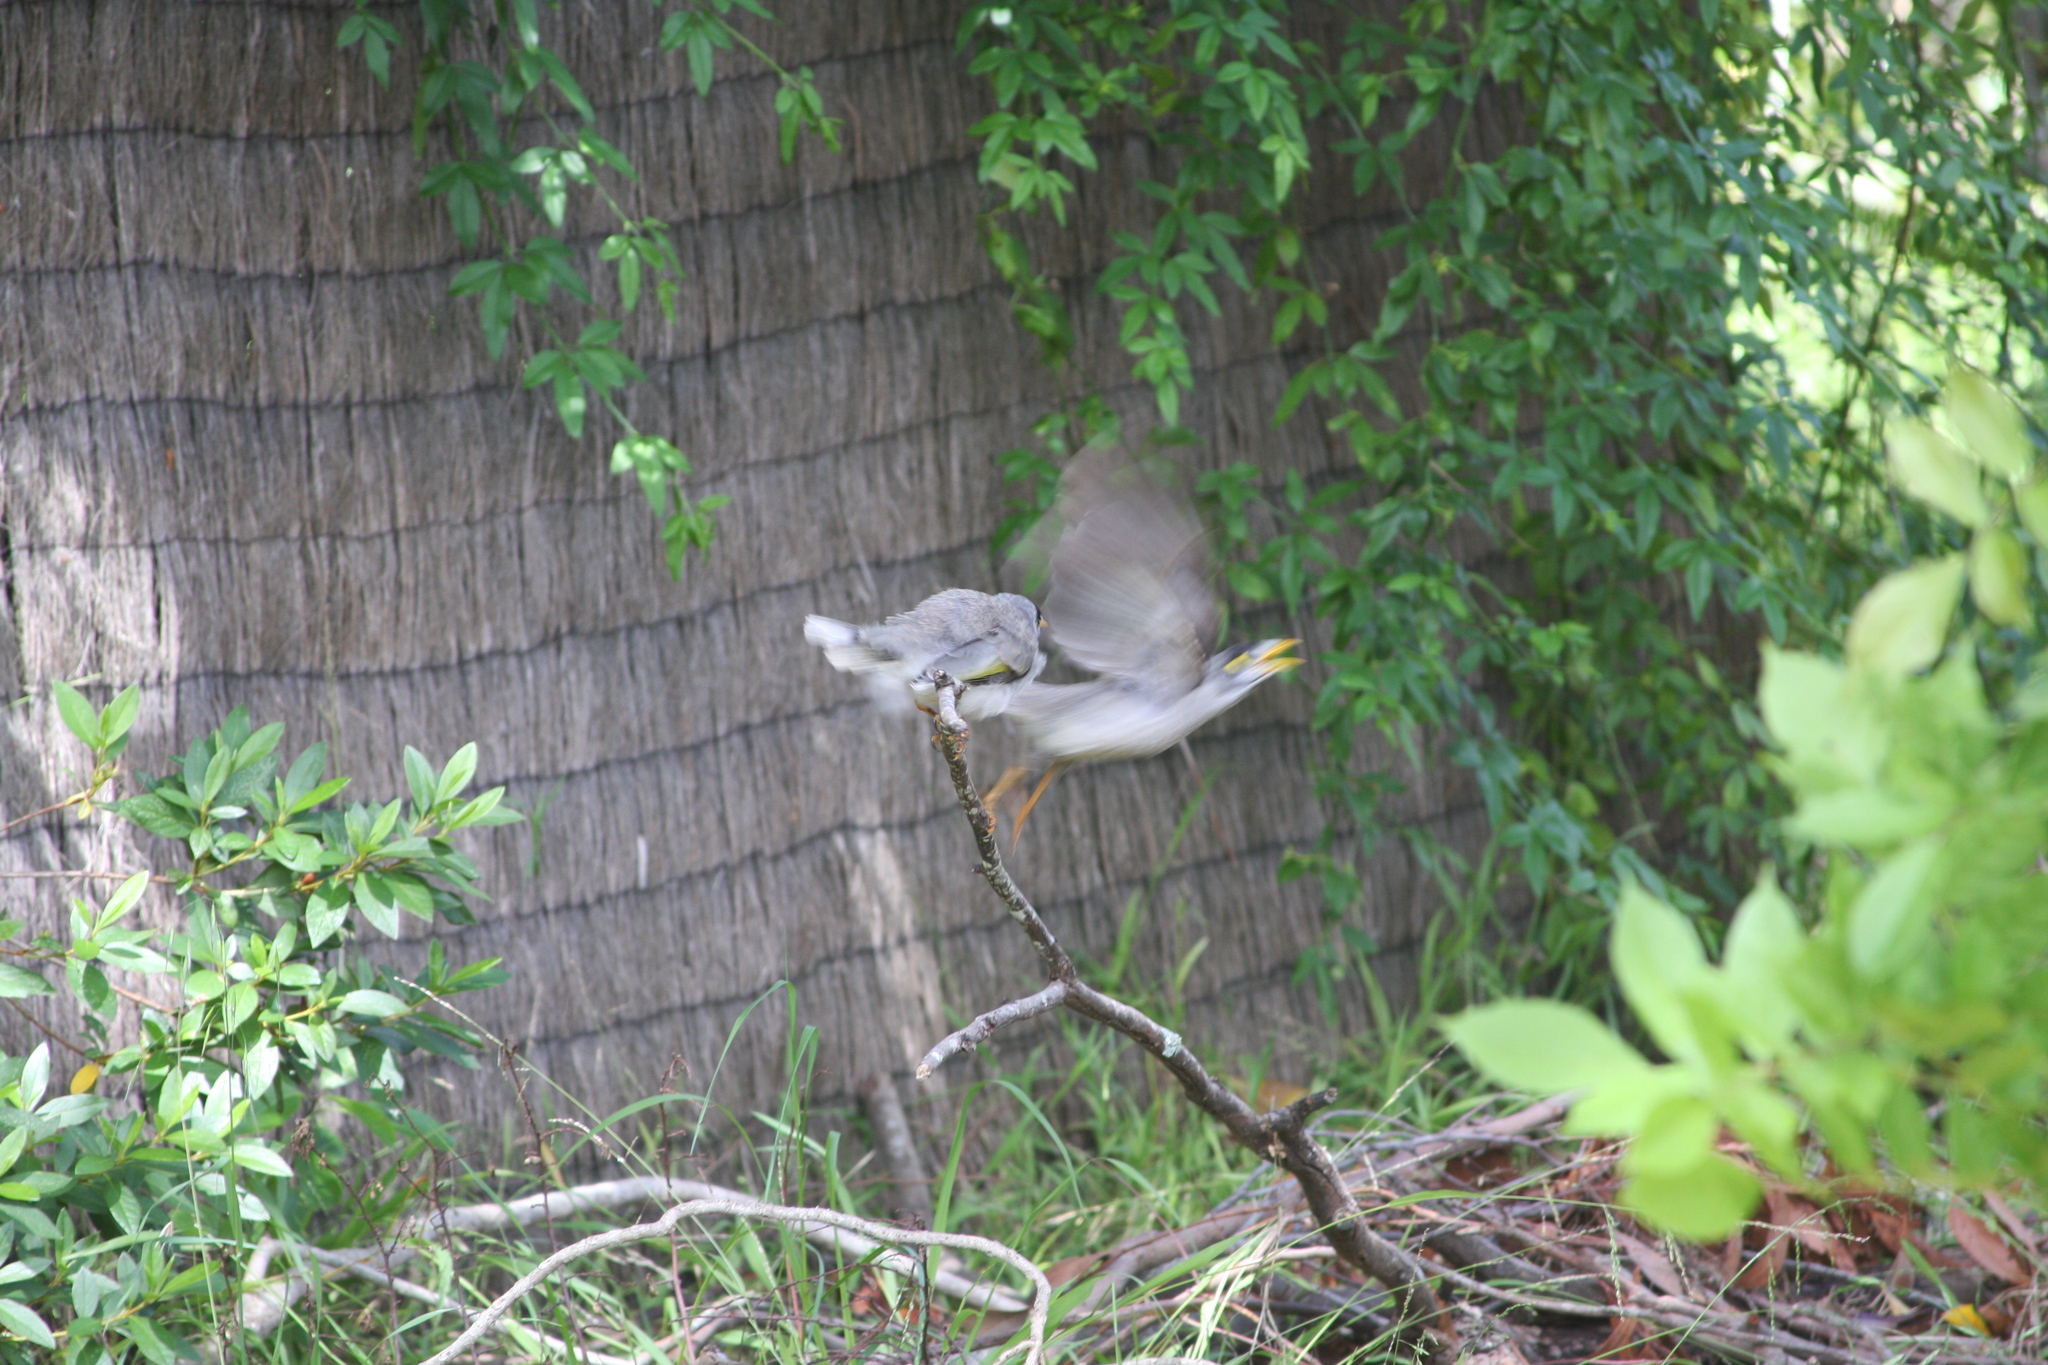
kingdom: Animalia
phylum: Chordata
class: Aves
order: Passeriformes
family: Meliphagidae
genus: Manorina
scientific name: Manorina melanocephala
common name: Noisy miner
